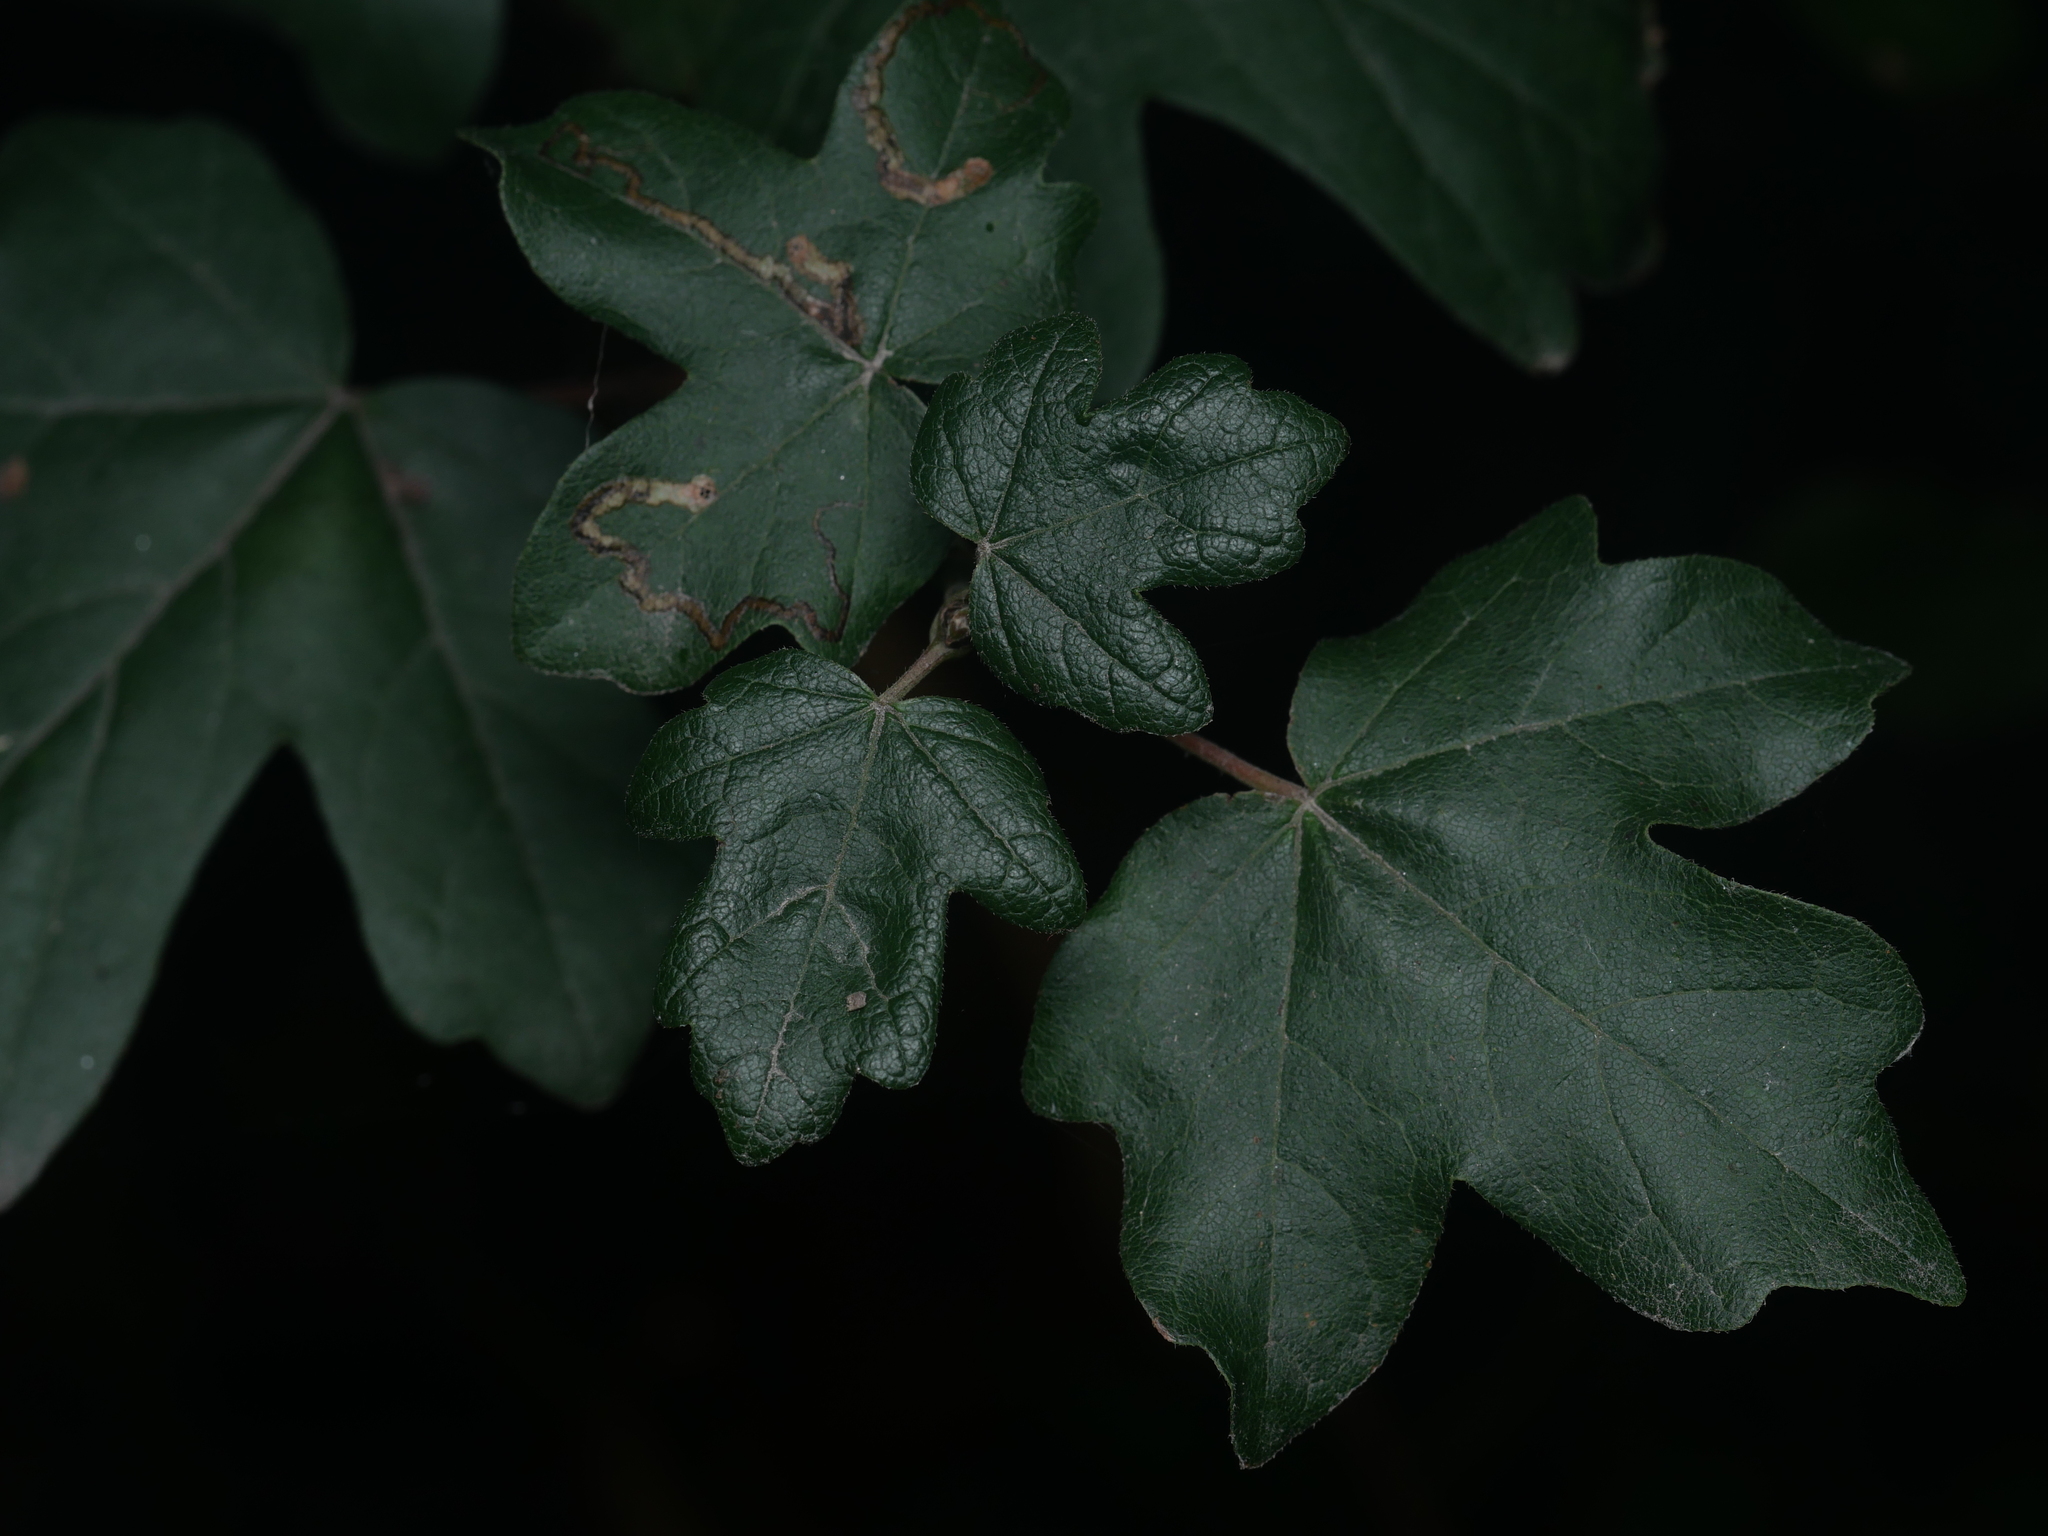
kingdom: Plantae
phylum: Tracheophyta
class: Magnoliopsida
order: Sapindales
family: Sapindaceae
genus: Acer
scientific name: Acer campestre
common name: Field maple
